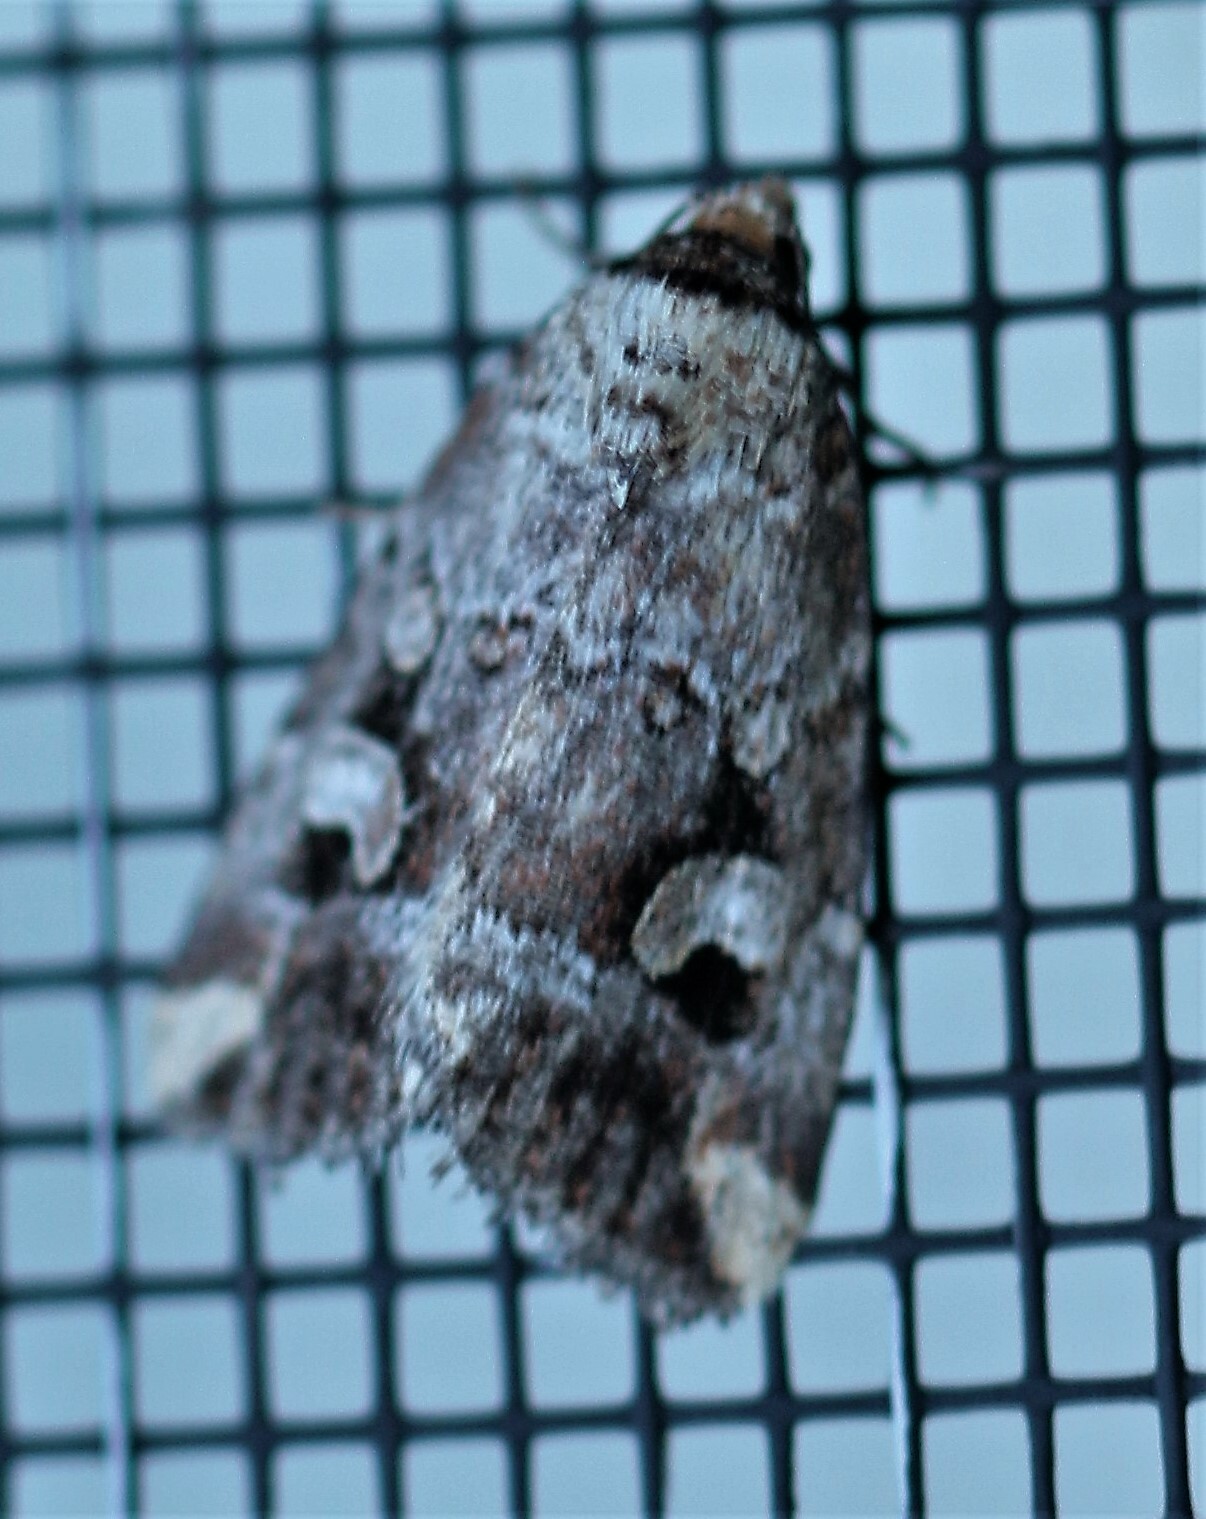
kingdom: Animalia
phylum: Arthropoda
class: Insecta
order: Lepidoptera
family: Noctuidae
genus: Elaphria
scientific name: Elaphria alapallida
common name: Pale-winged midget
